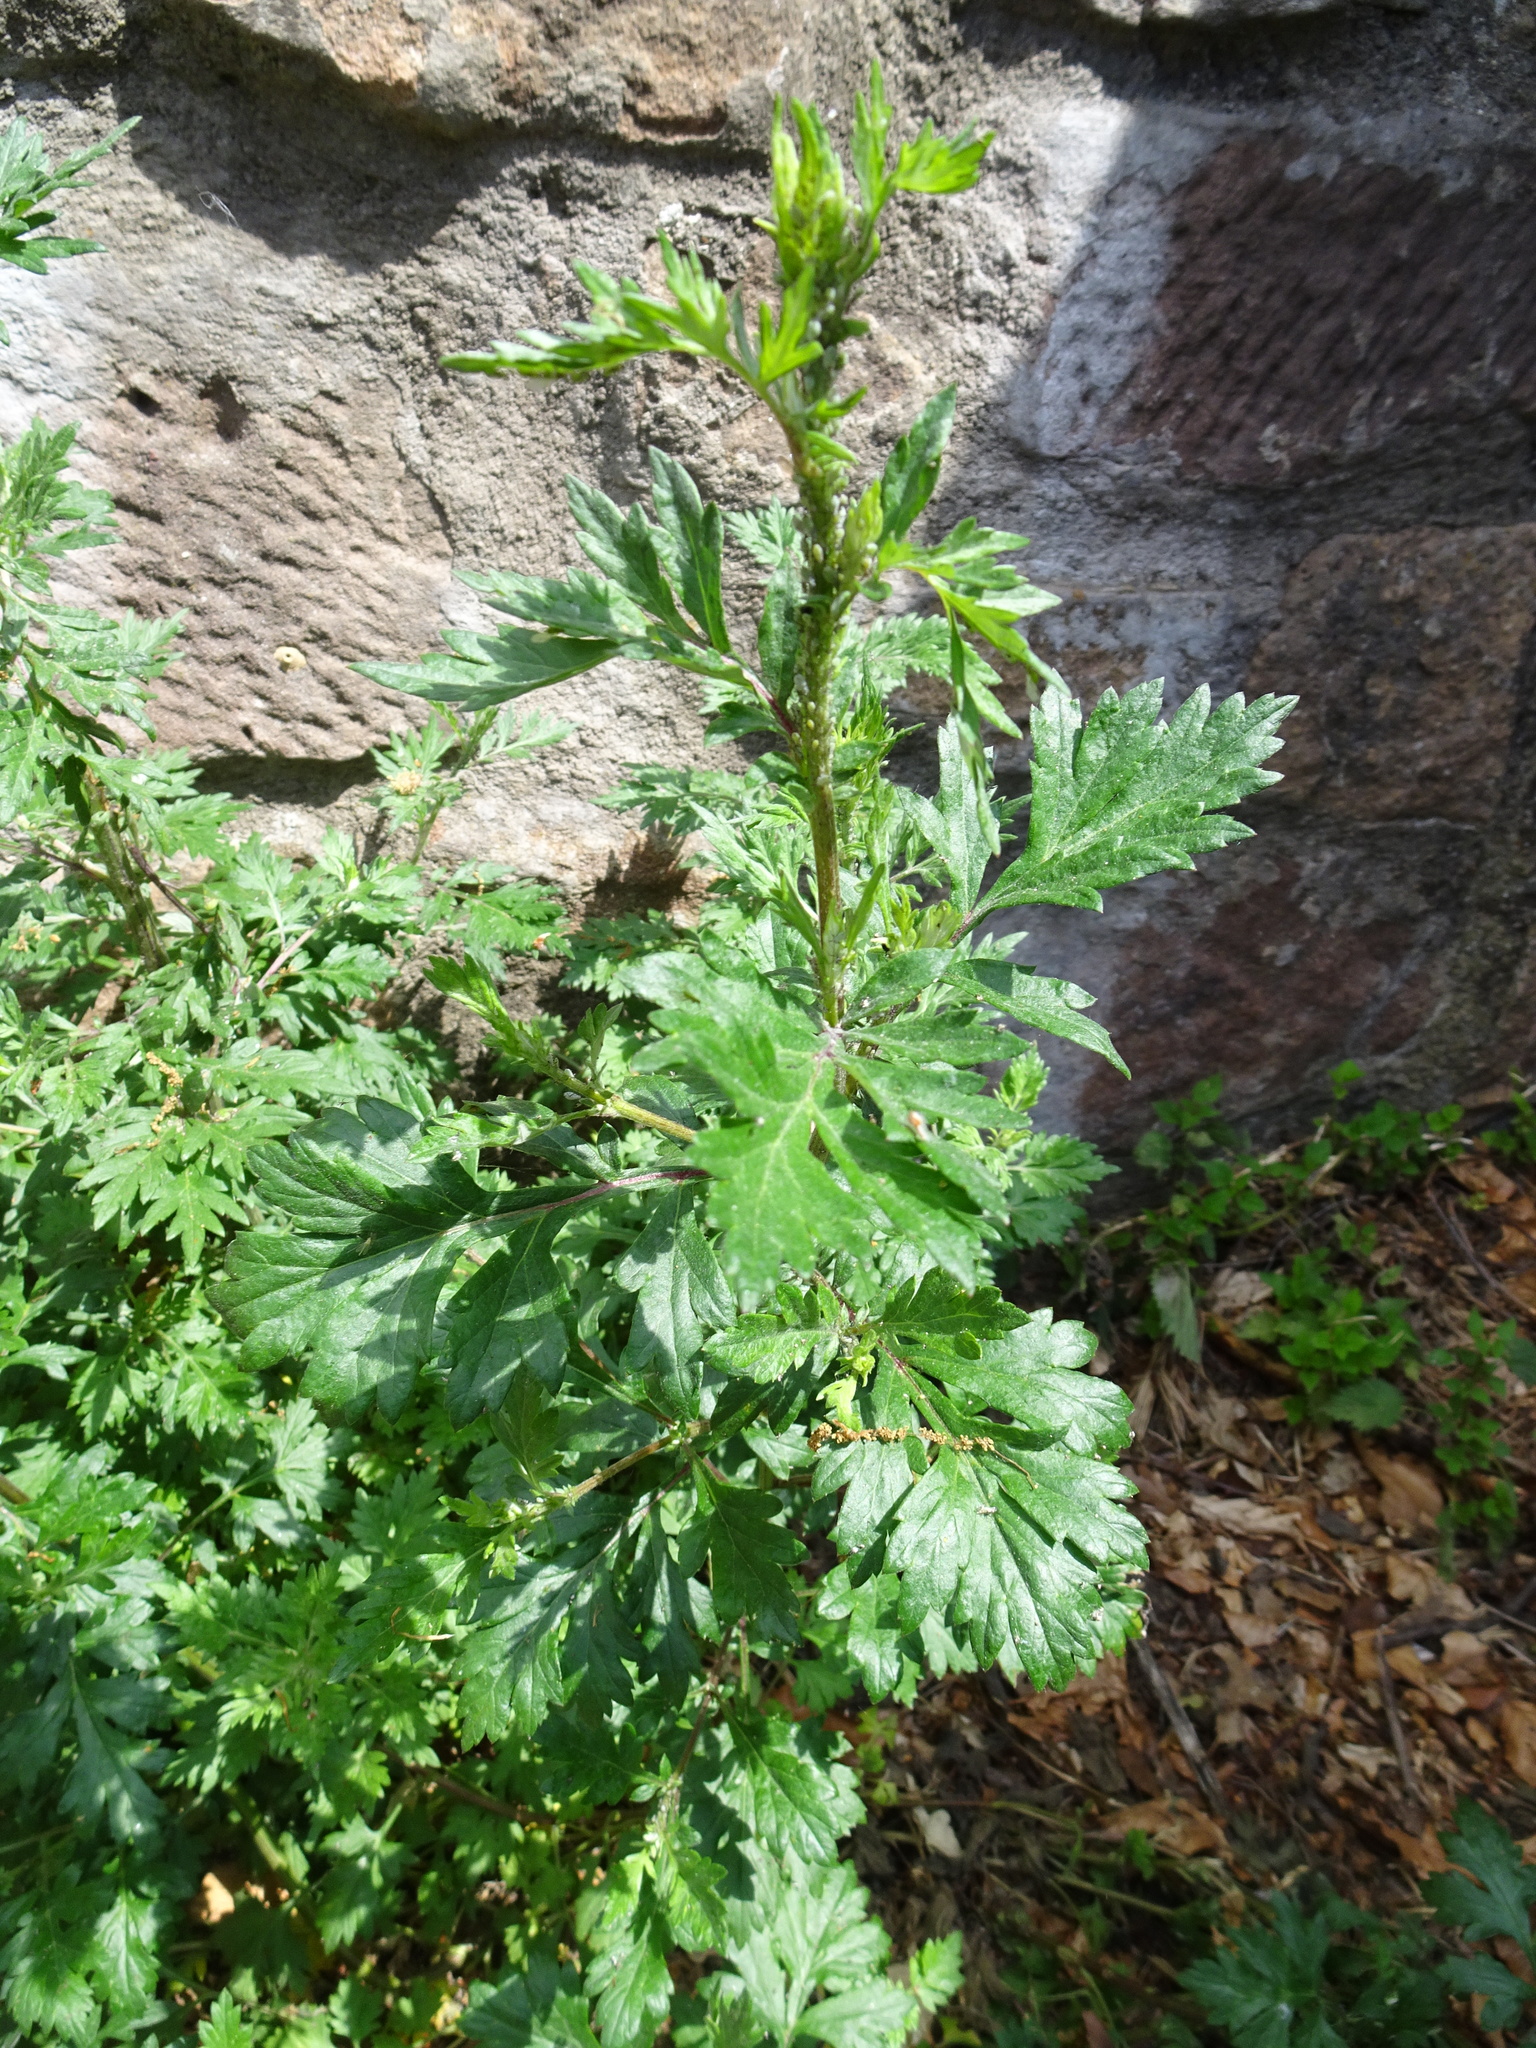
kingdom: Plantae
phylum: Tracheophyta
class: Magnoliopsida
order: Asterales
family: Asteraceae
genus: Artemisia
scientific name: Artemisia vulgaris
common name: Mugwort
